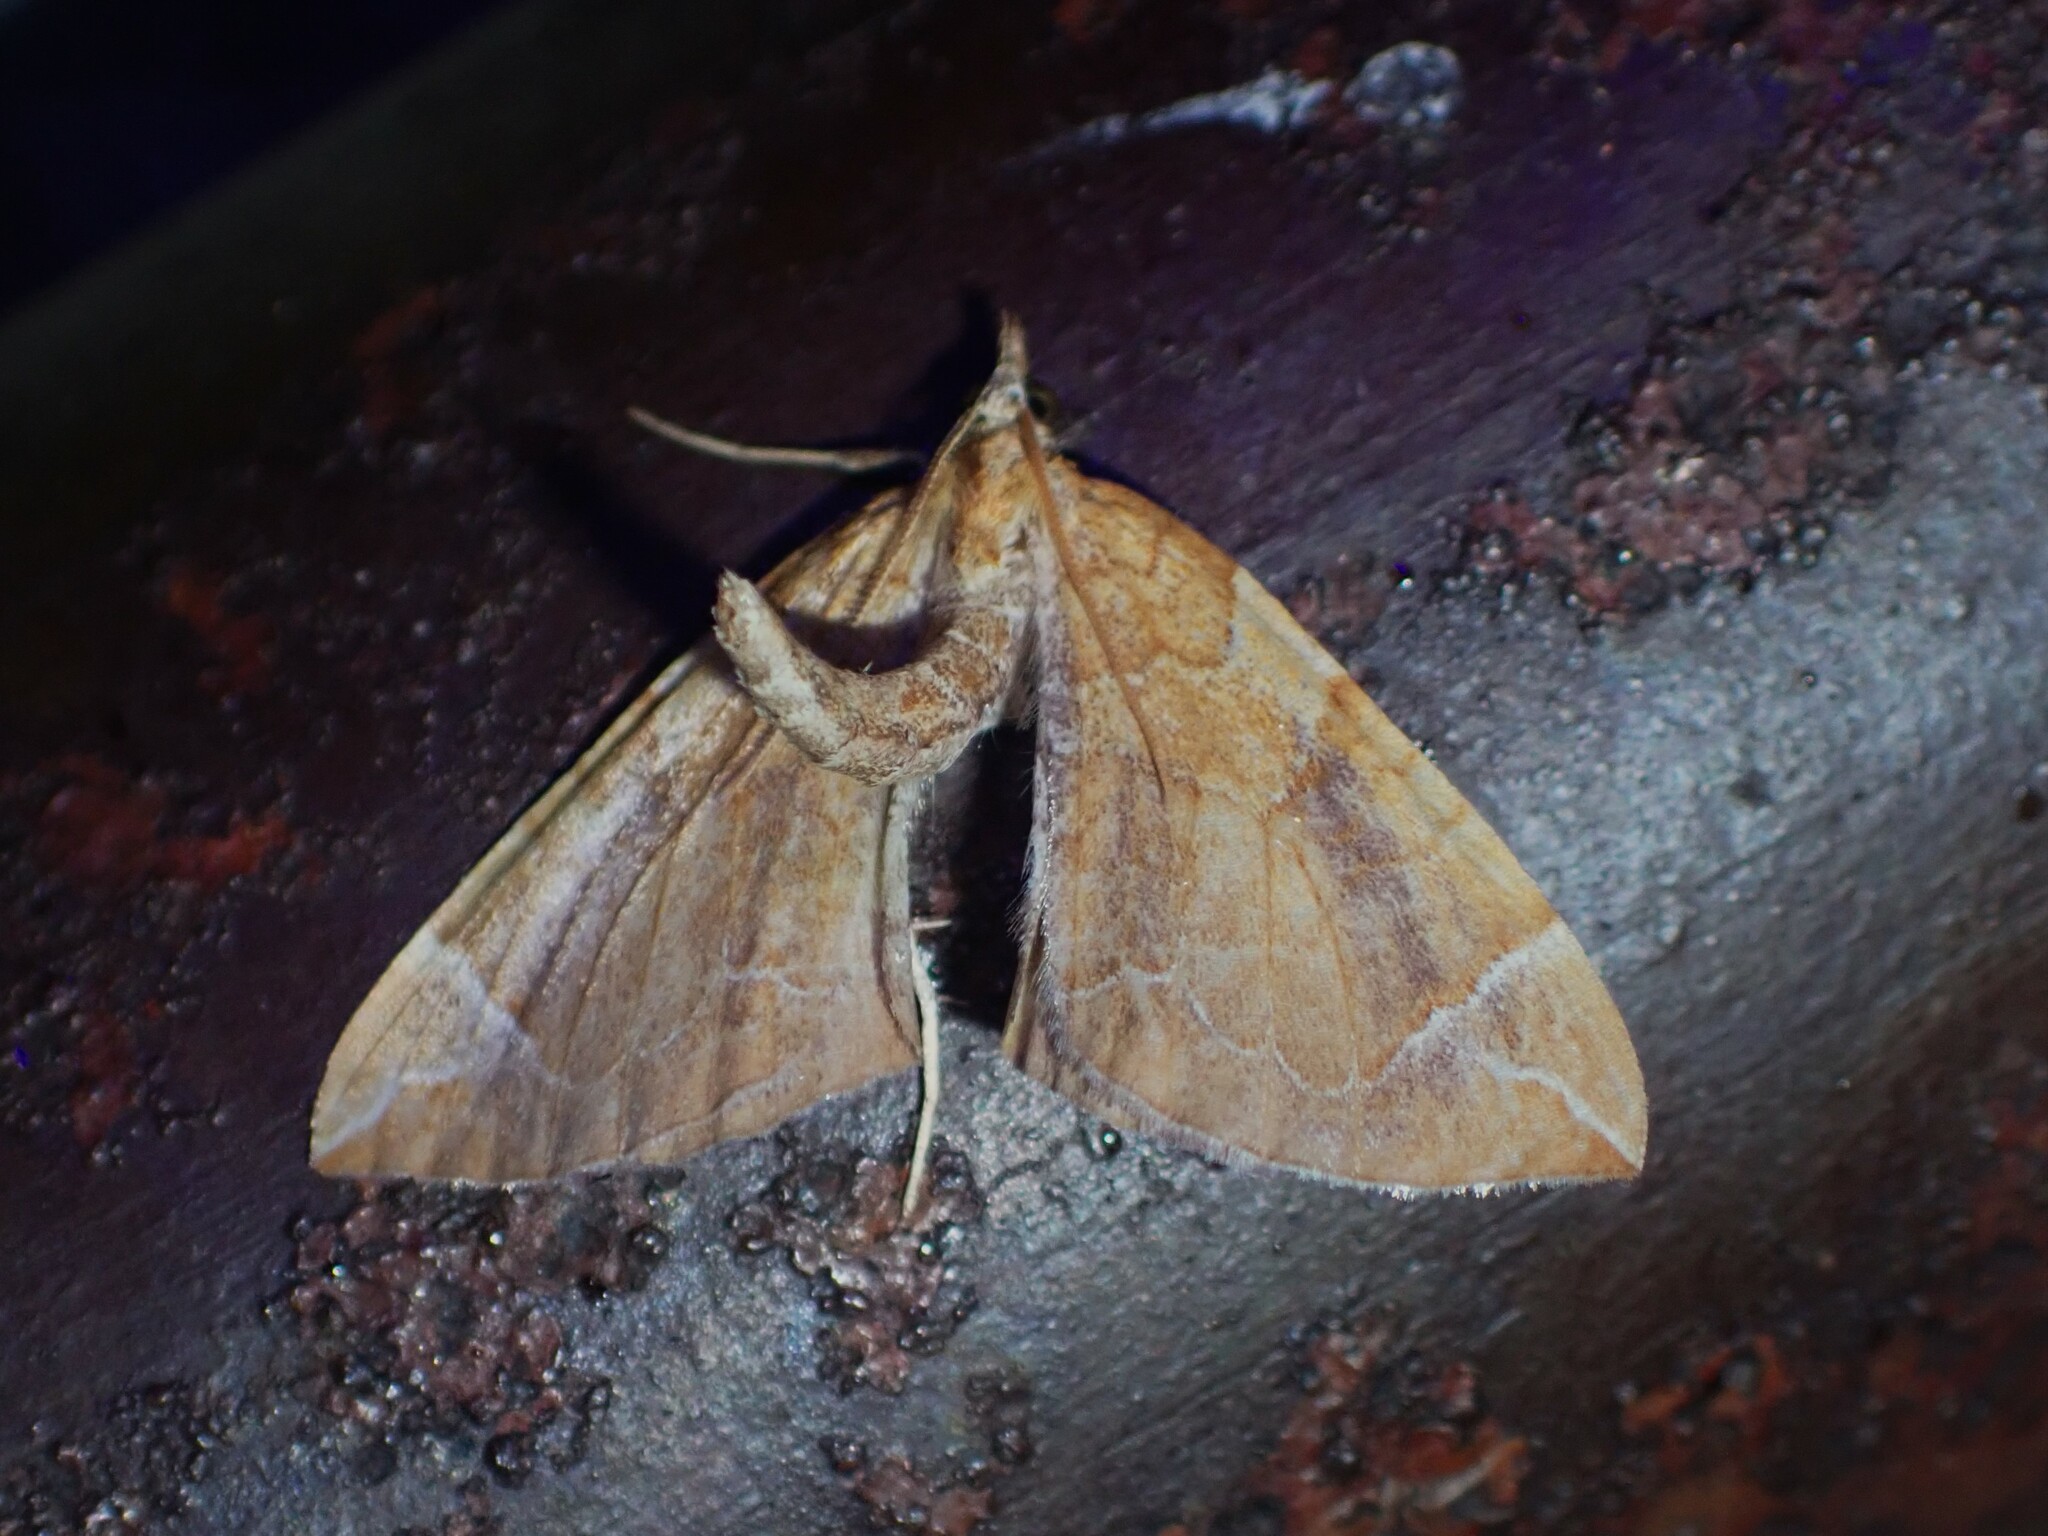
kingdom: Animalia
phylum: Arthropoda
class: Insecta
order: Lepidoptera
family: Geometridae
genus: Eulithis
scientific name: Eulithis testata
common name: Chevron
